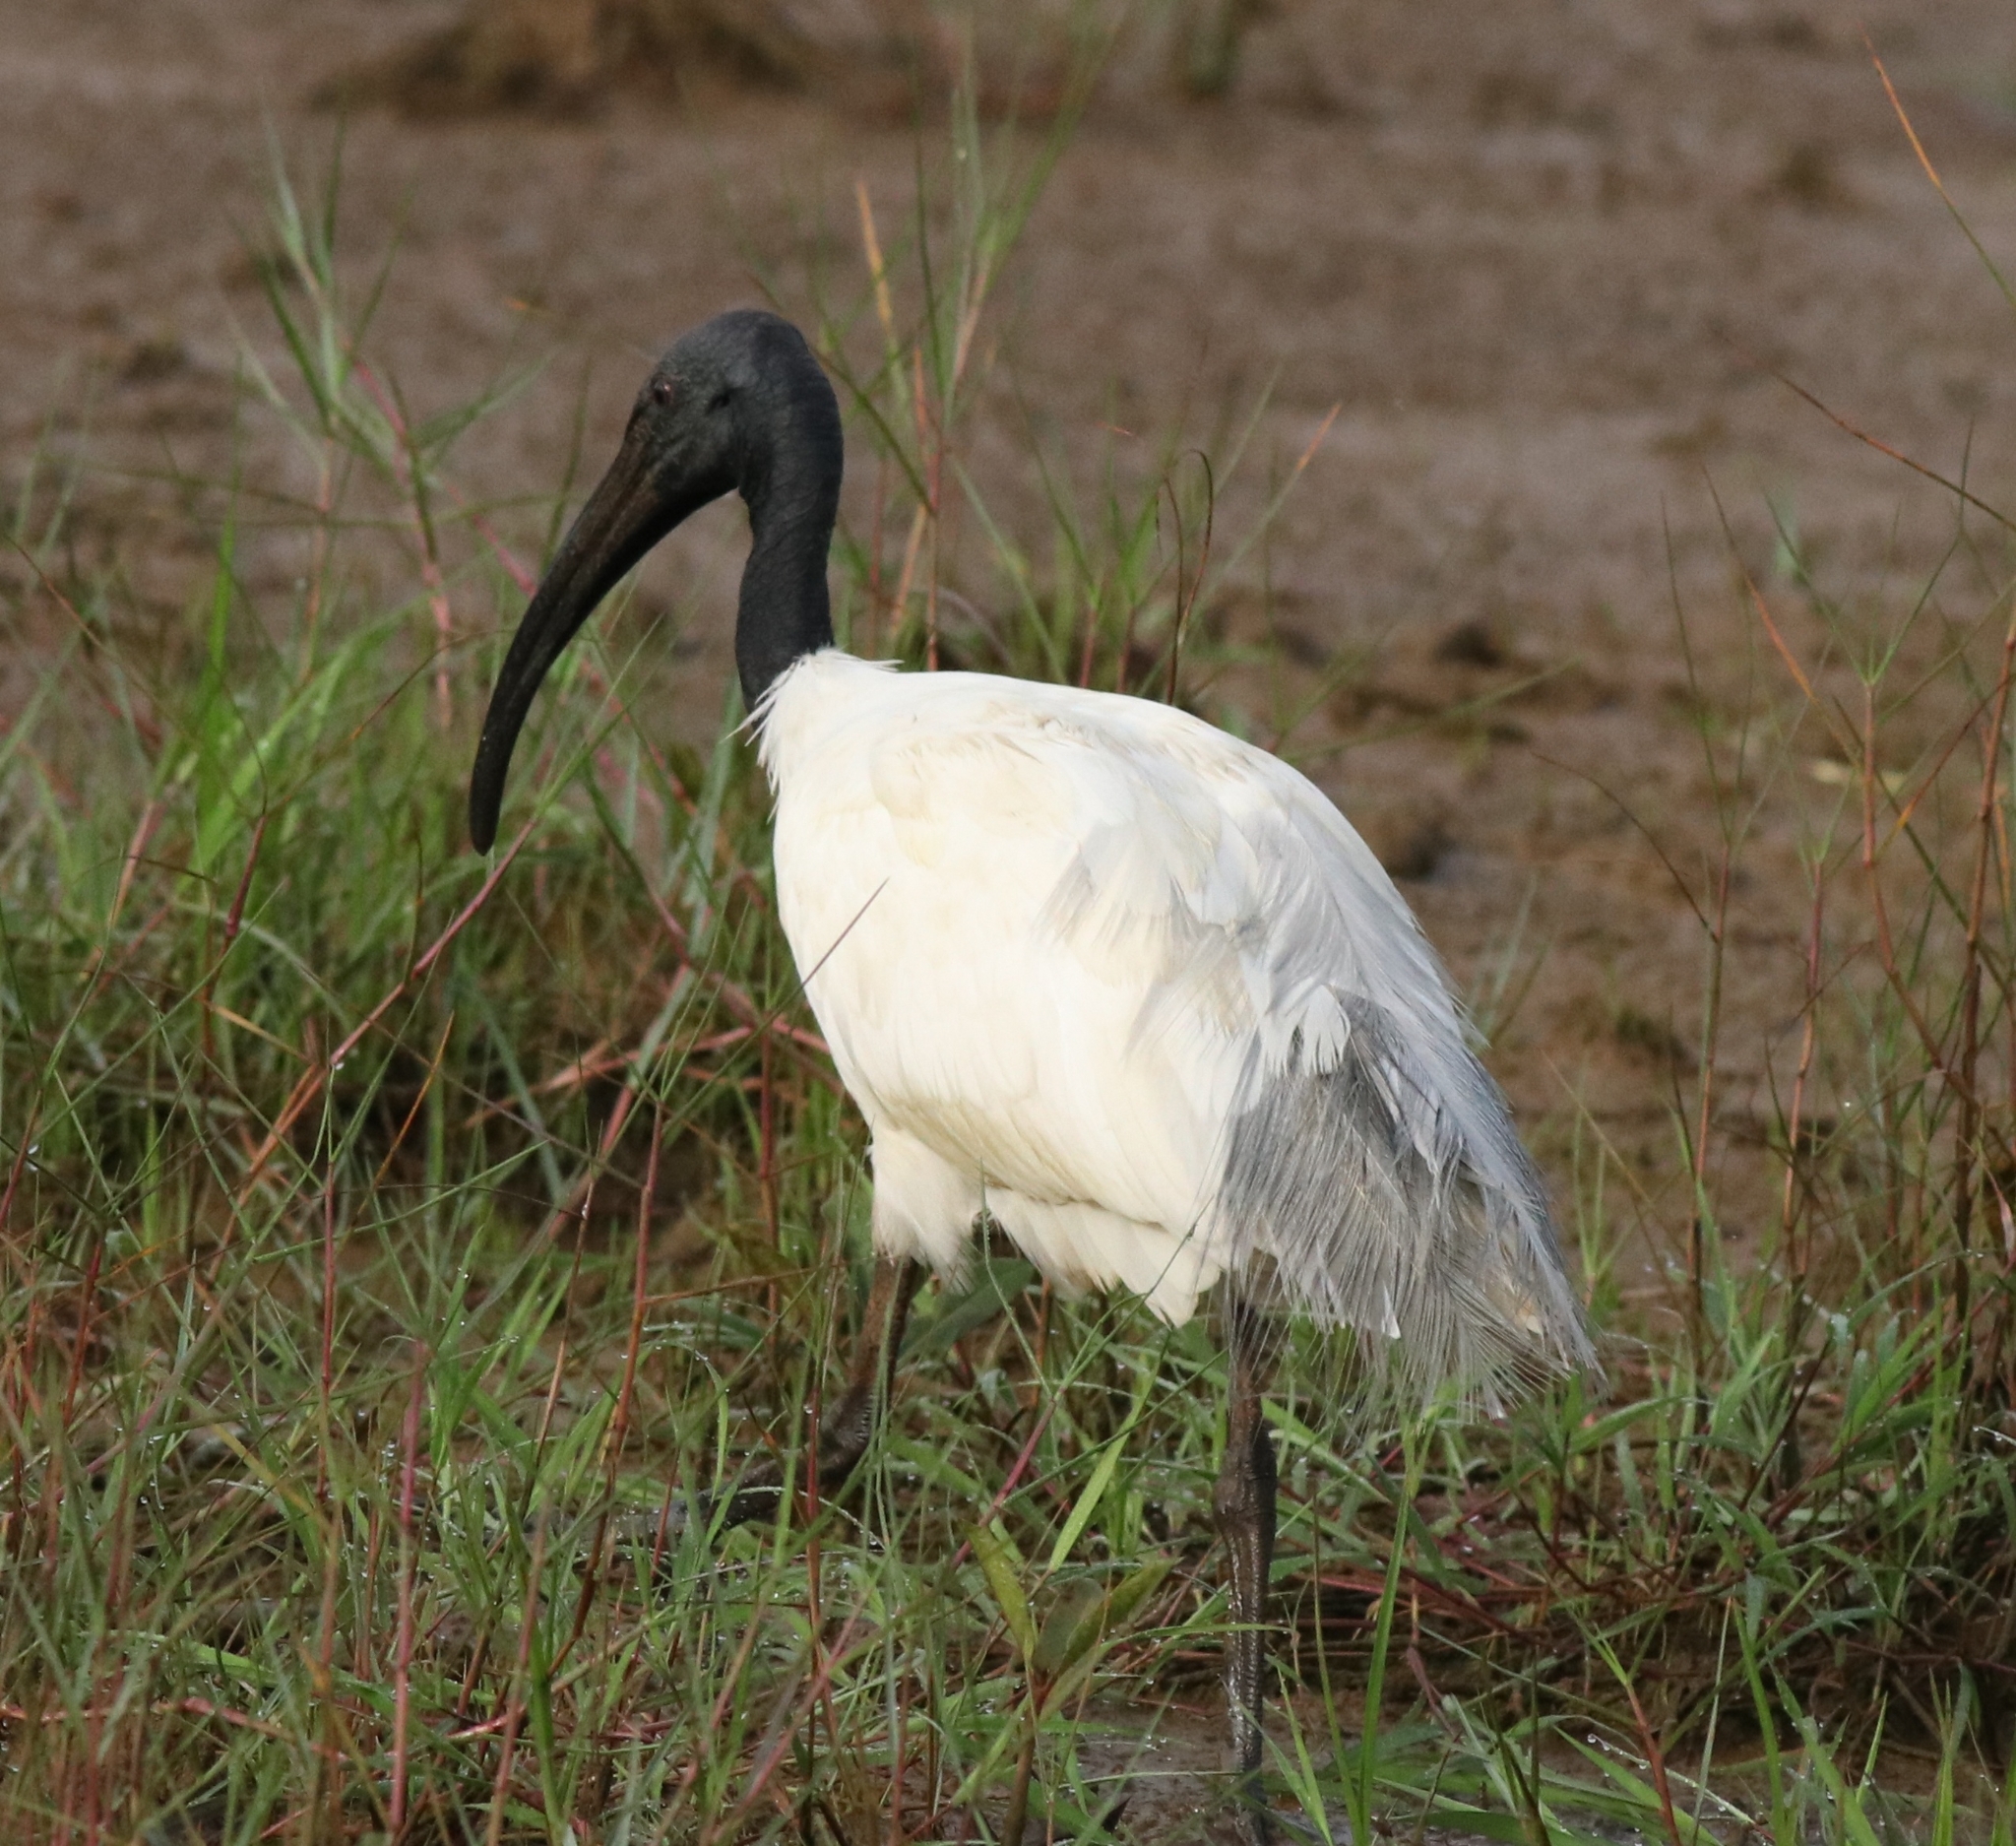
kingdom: Animalia
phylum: Chordata
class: Aves
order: Pelecaniformes
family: Threskiornithidae
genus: Threskiornis
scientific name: Threskiornis melanocephalus
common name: Black-headed ibis
